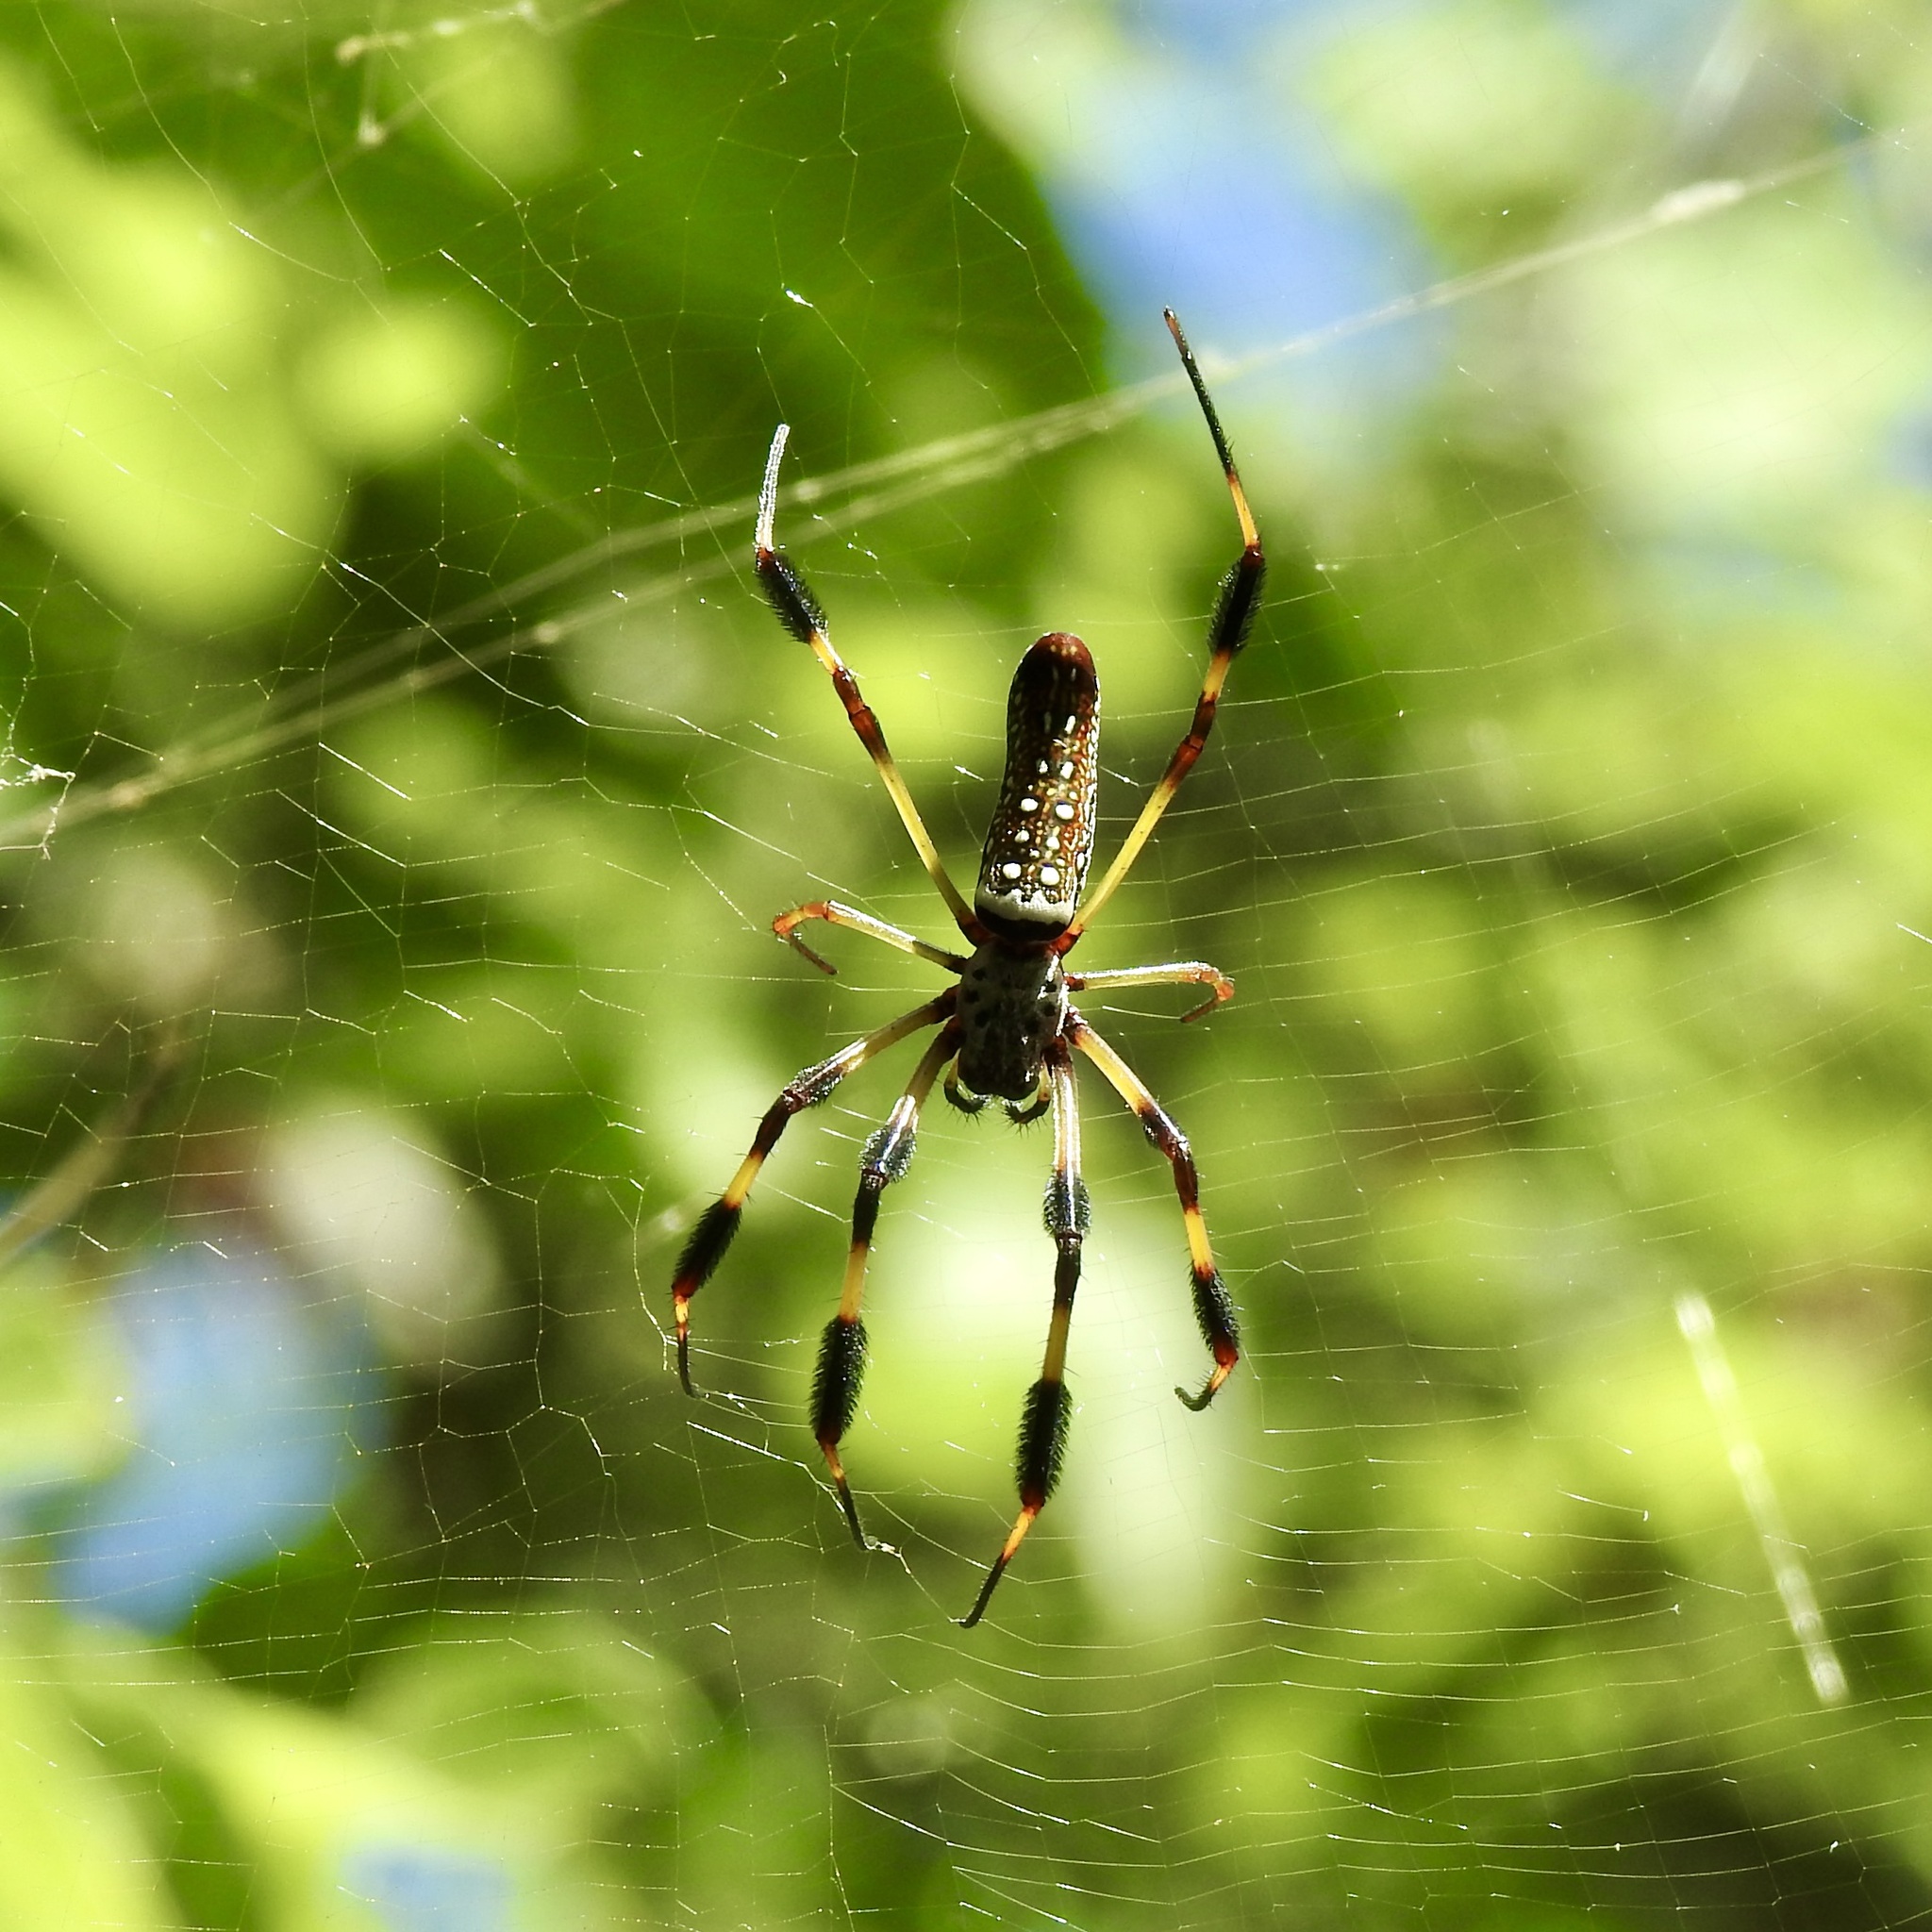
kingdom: Animalia
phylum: Arthropoda
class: Arachnida
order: Araneae
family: Araneidae
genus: Trichonephila
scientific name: Trichonephila clavipes
